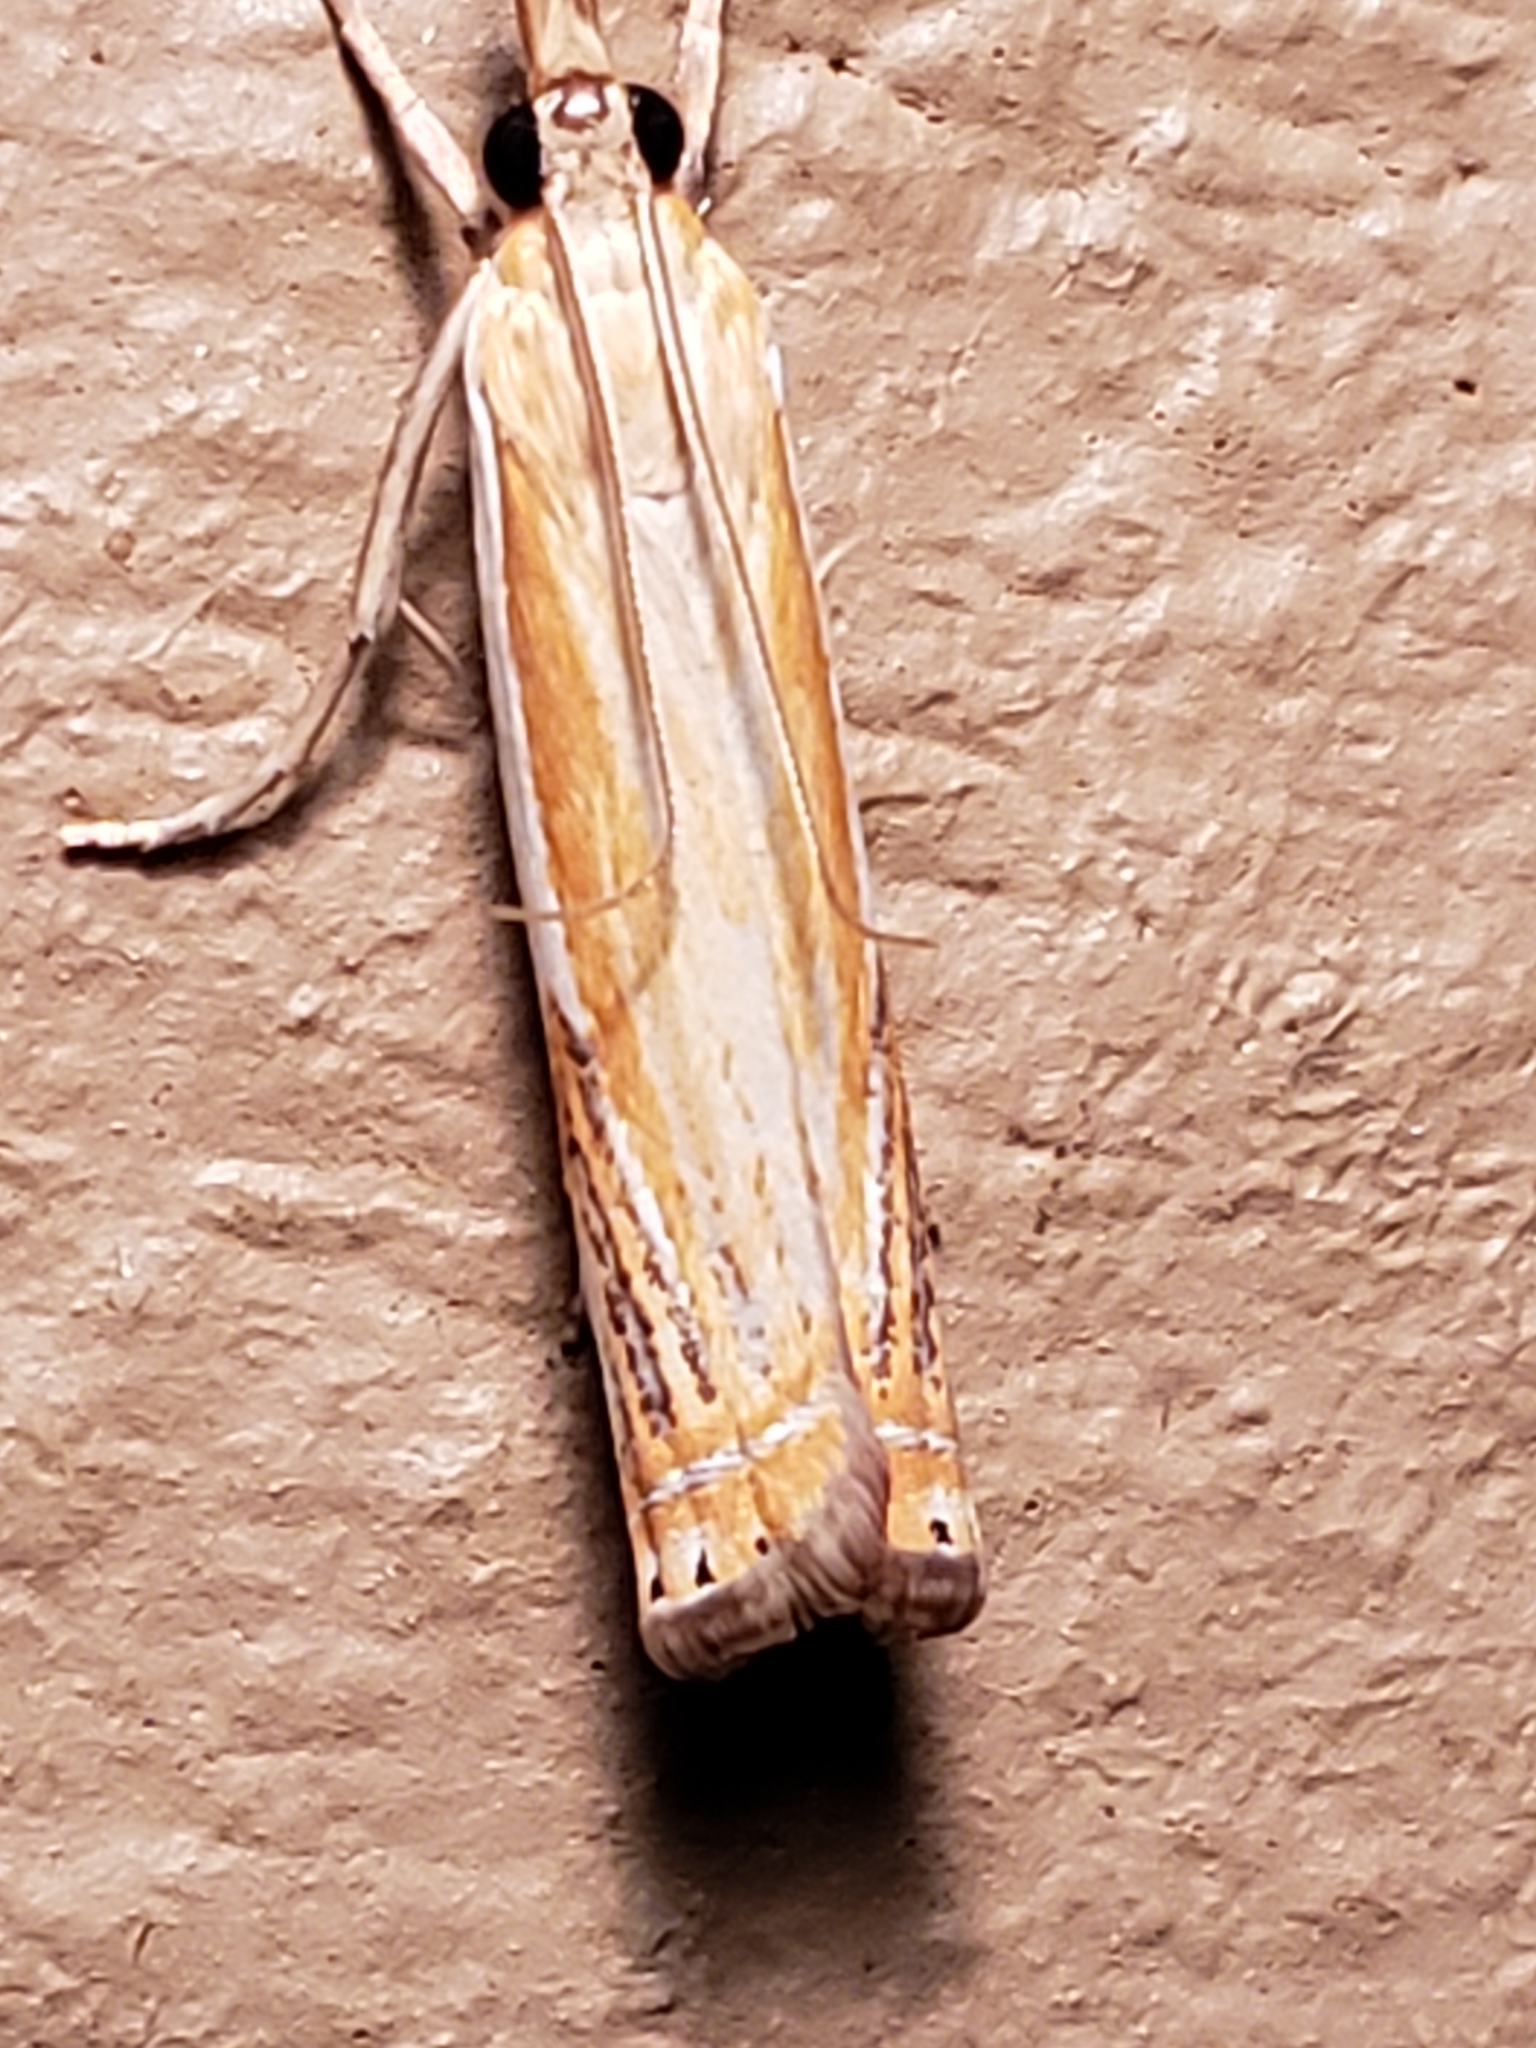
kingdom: Animalia
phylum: Arthropoda
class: Insecta
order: Lepidoptera
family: Crambidae
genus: Crambus
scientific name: Crambus
